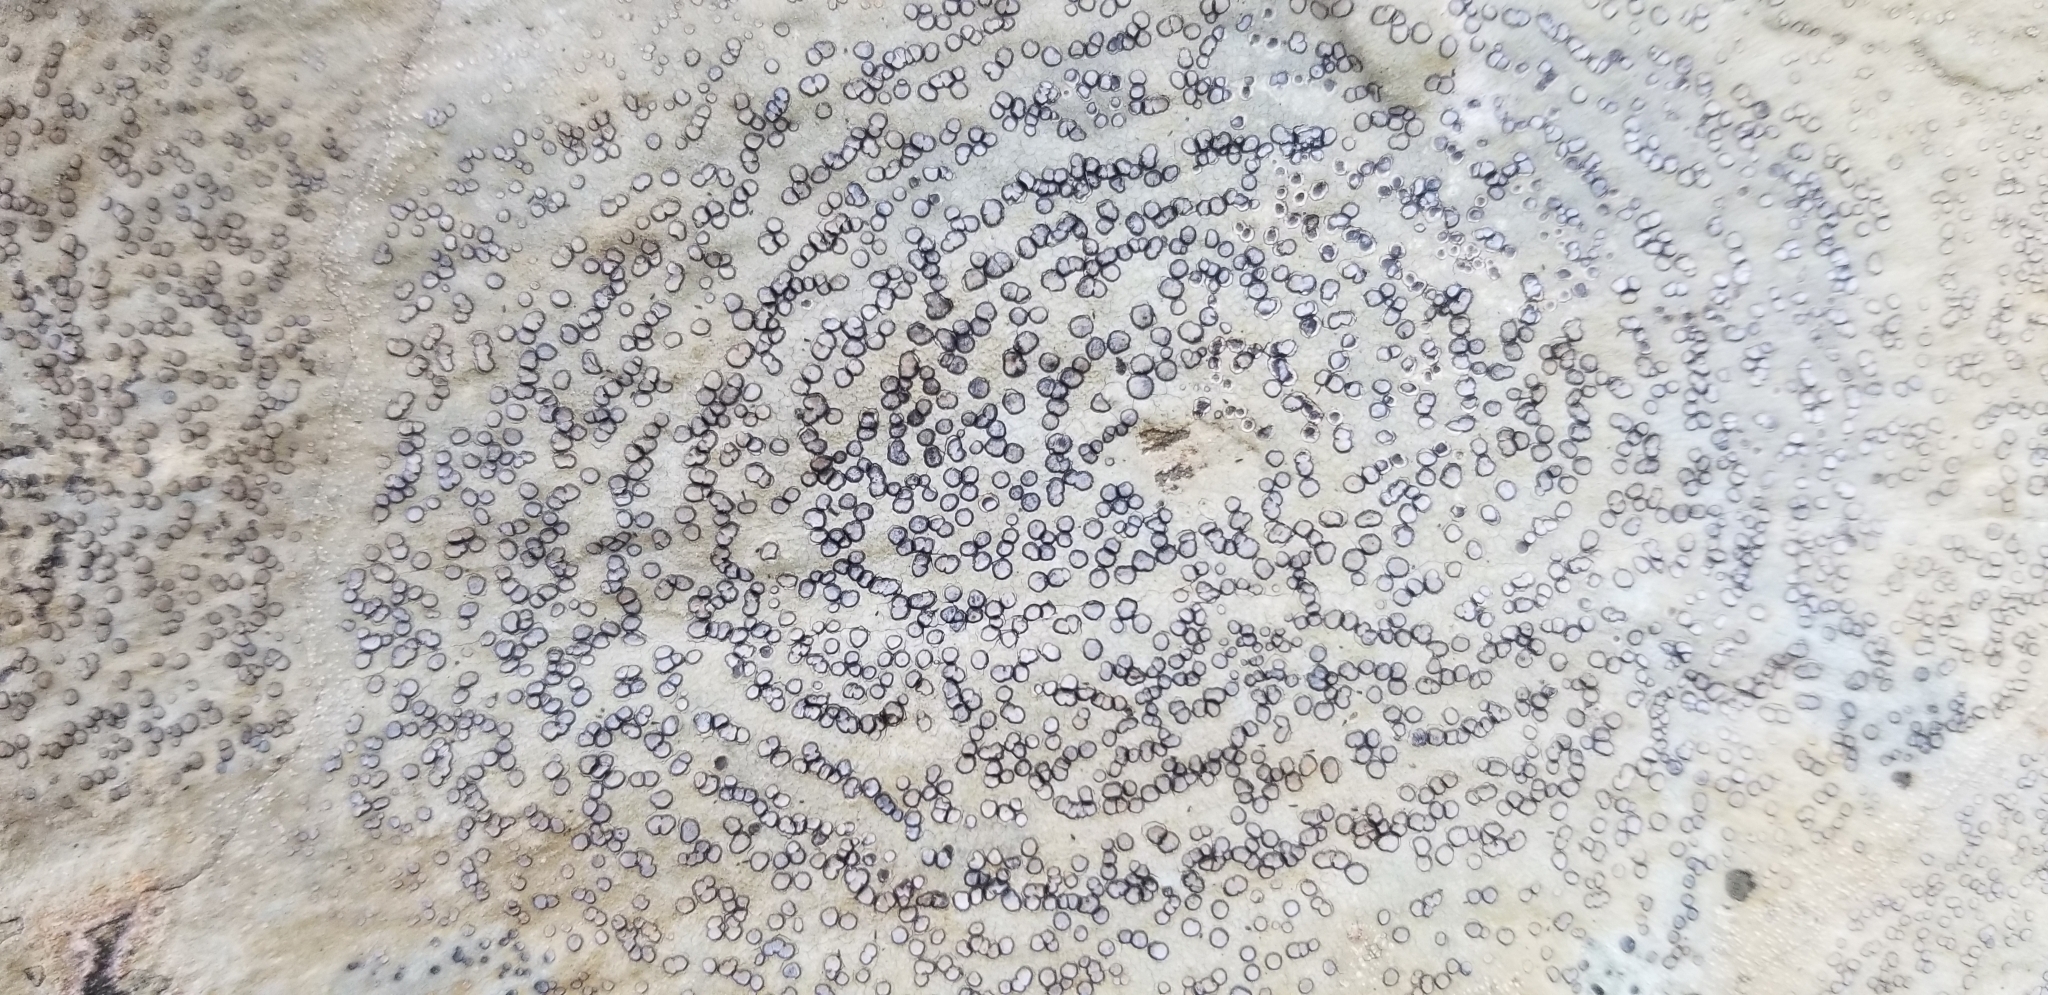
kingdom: Fungi
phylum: Ascomycota
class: Lecanoromycetes
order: Lecideales
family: Lecideaceae
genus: Porpidia
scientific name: Porpidia albocaerulescens
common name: Smokey-eyed boulder lichen
